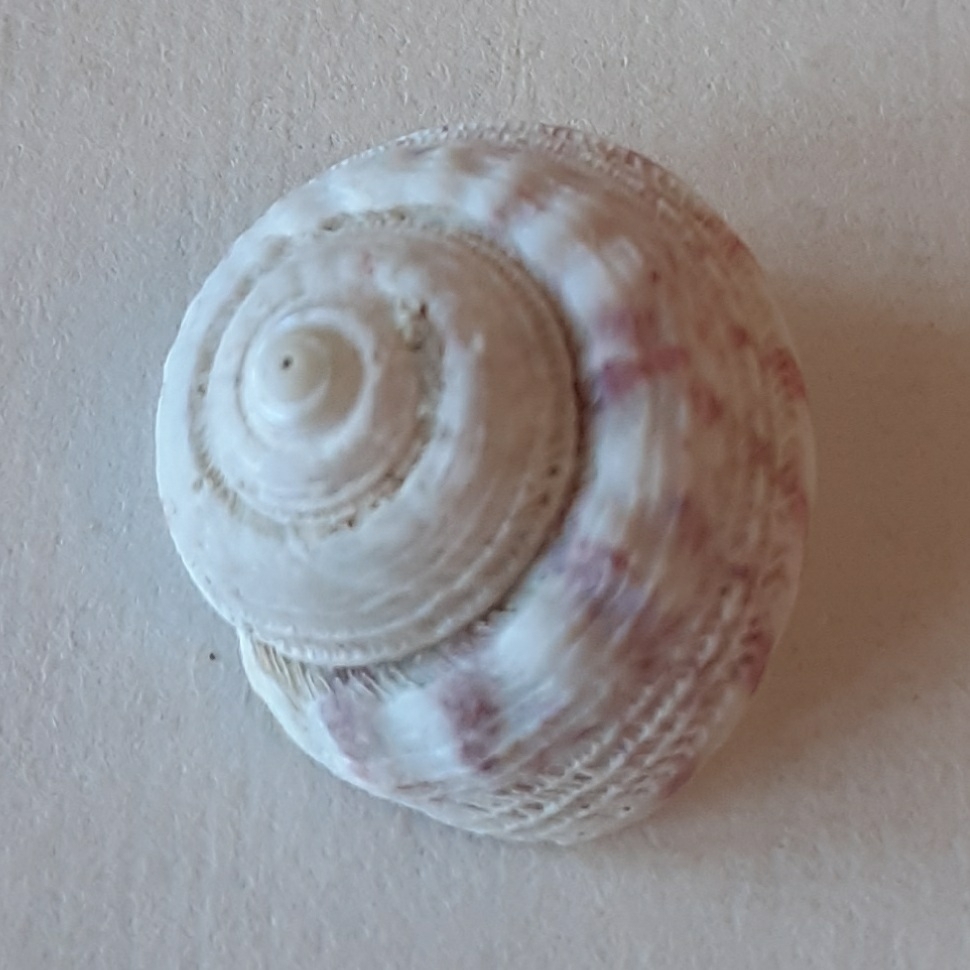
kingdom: Animalia
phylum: Mollusca
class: Gastropoda
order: Trochida
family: Trochidae
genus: Gibbula
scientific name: Gibbula magus
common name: Turban top shell
